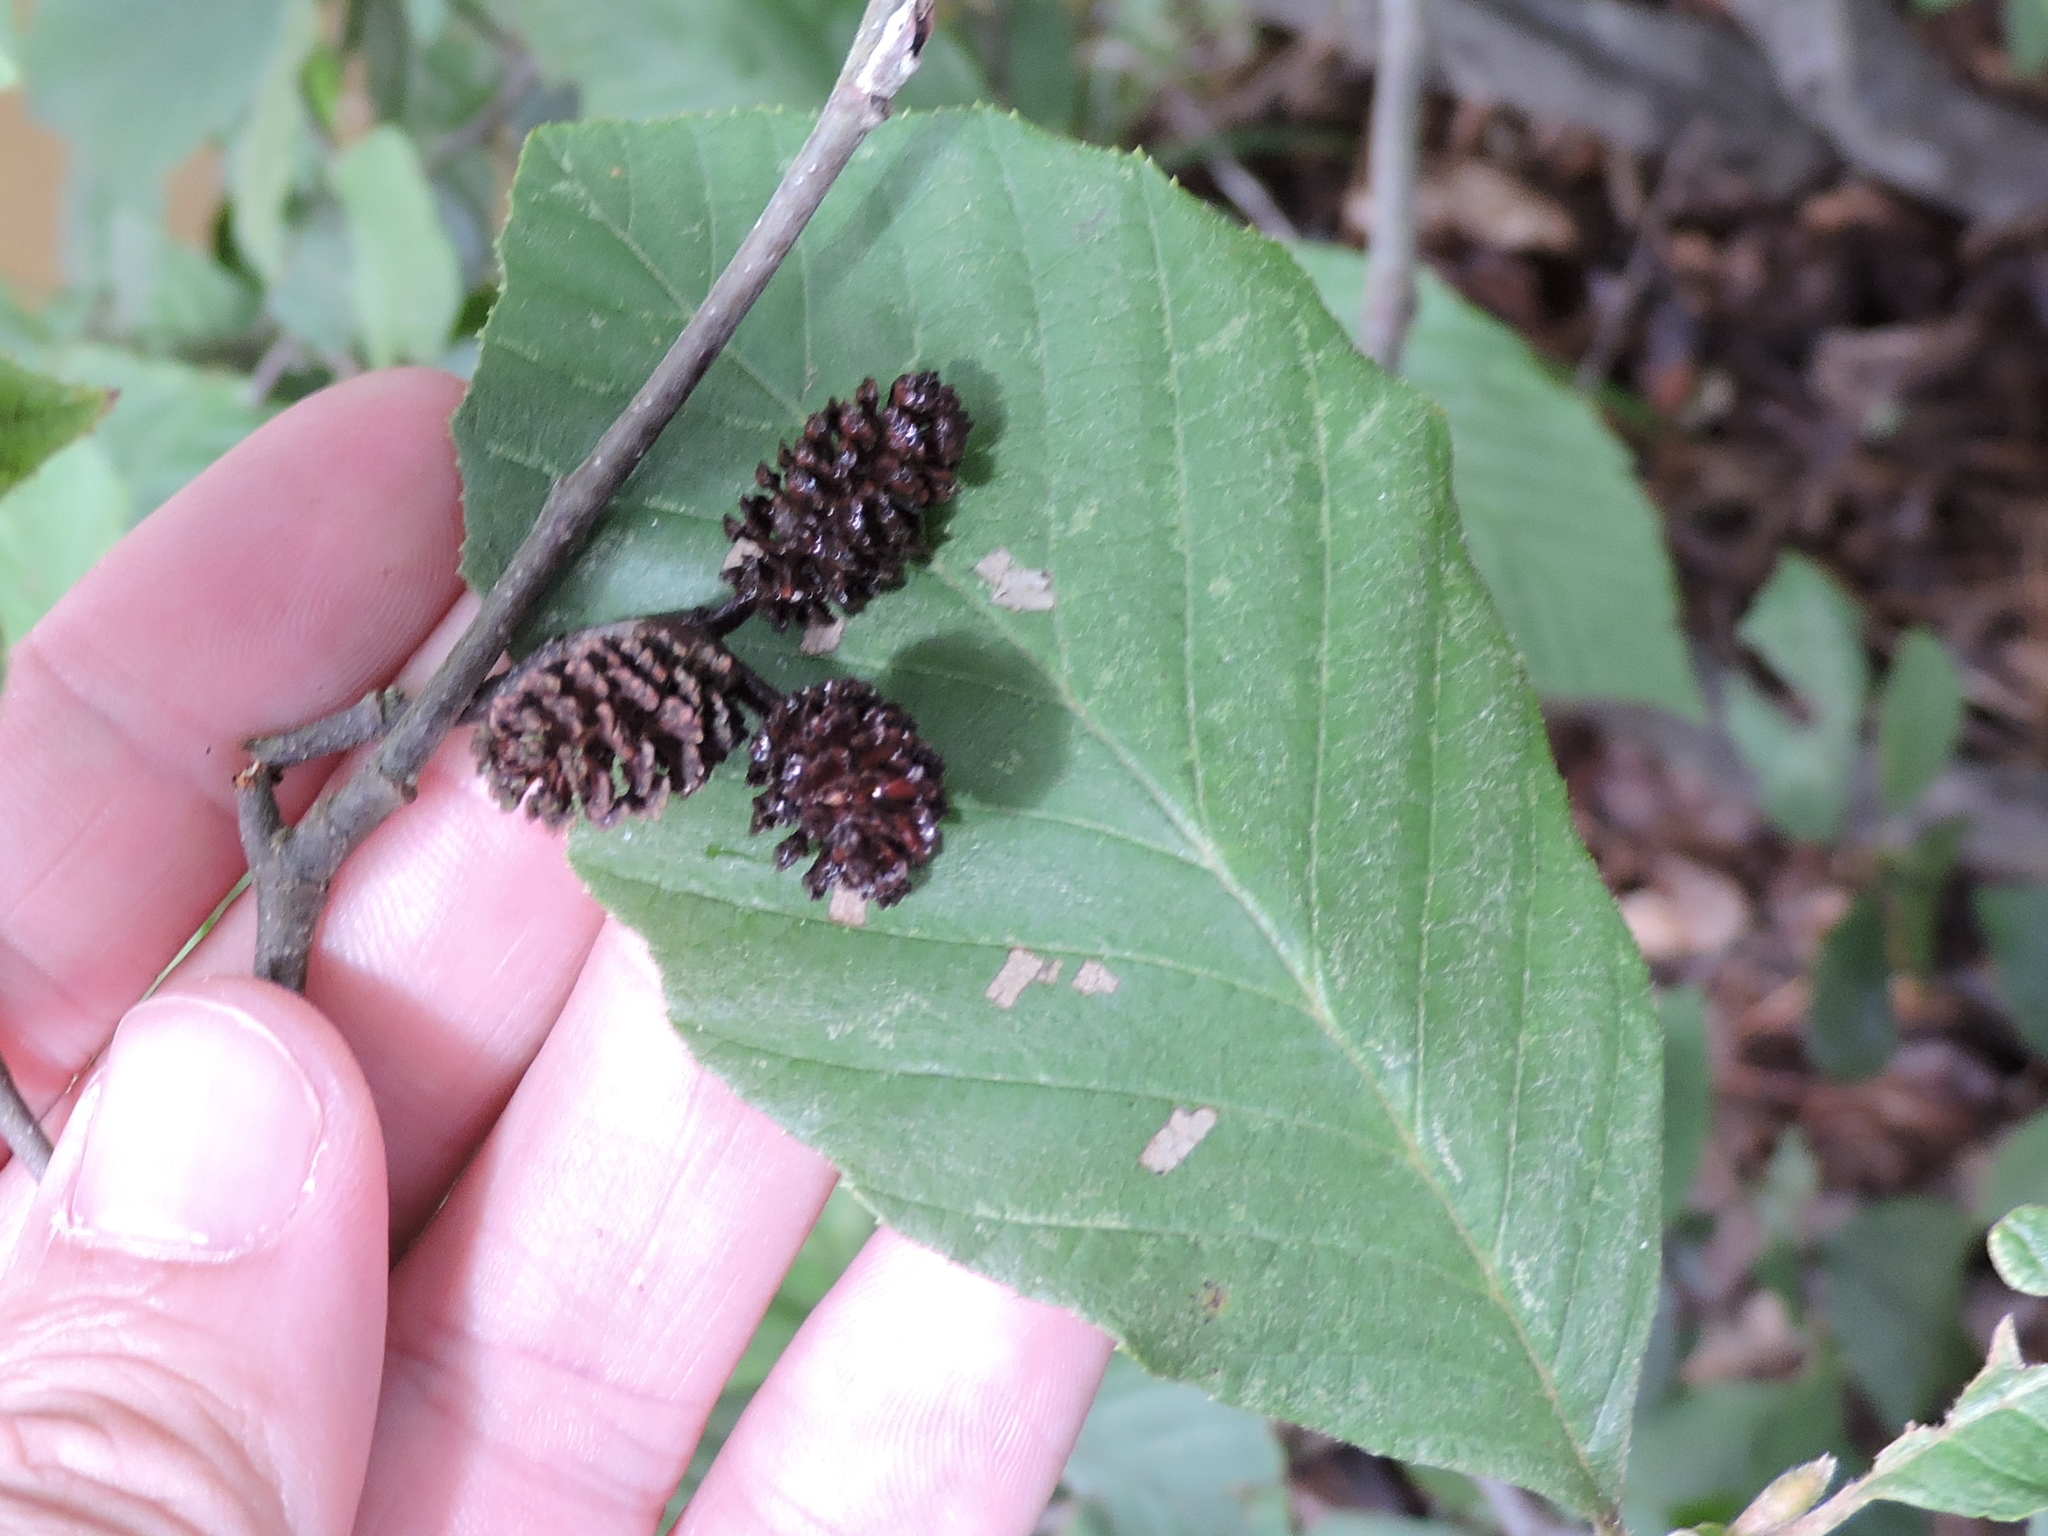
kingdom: Plantae
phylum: Tracheophyta
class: Magnoliopsida
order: Fagales
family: Betulaceae
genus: Alnus
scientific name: Alnus serrulata
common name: Hazel alder
